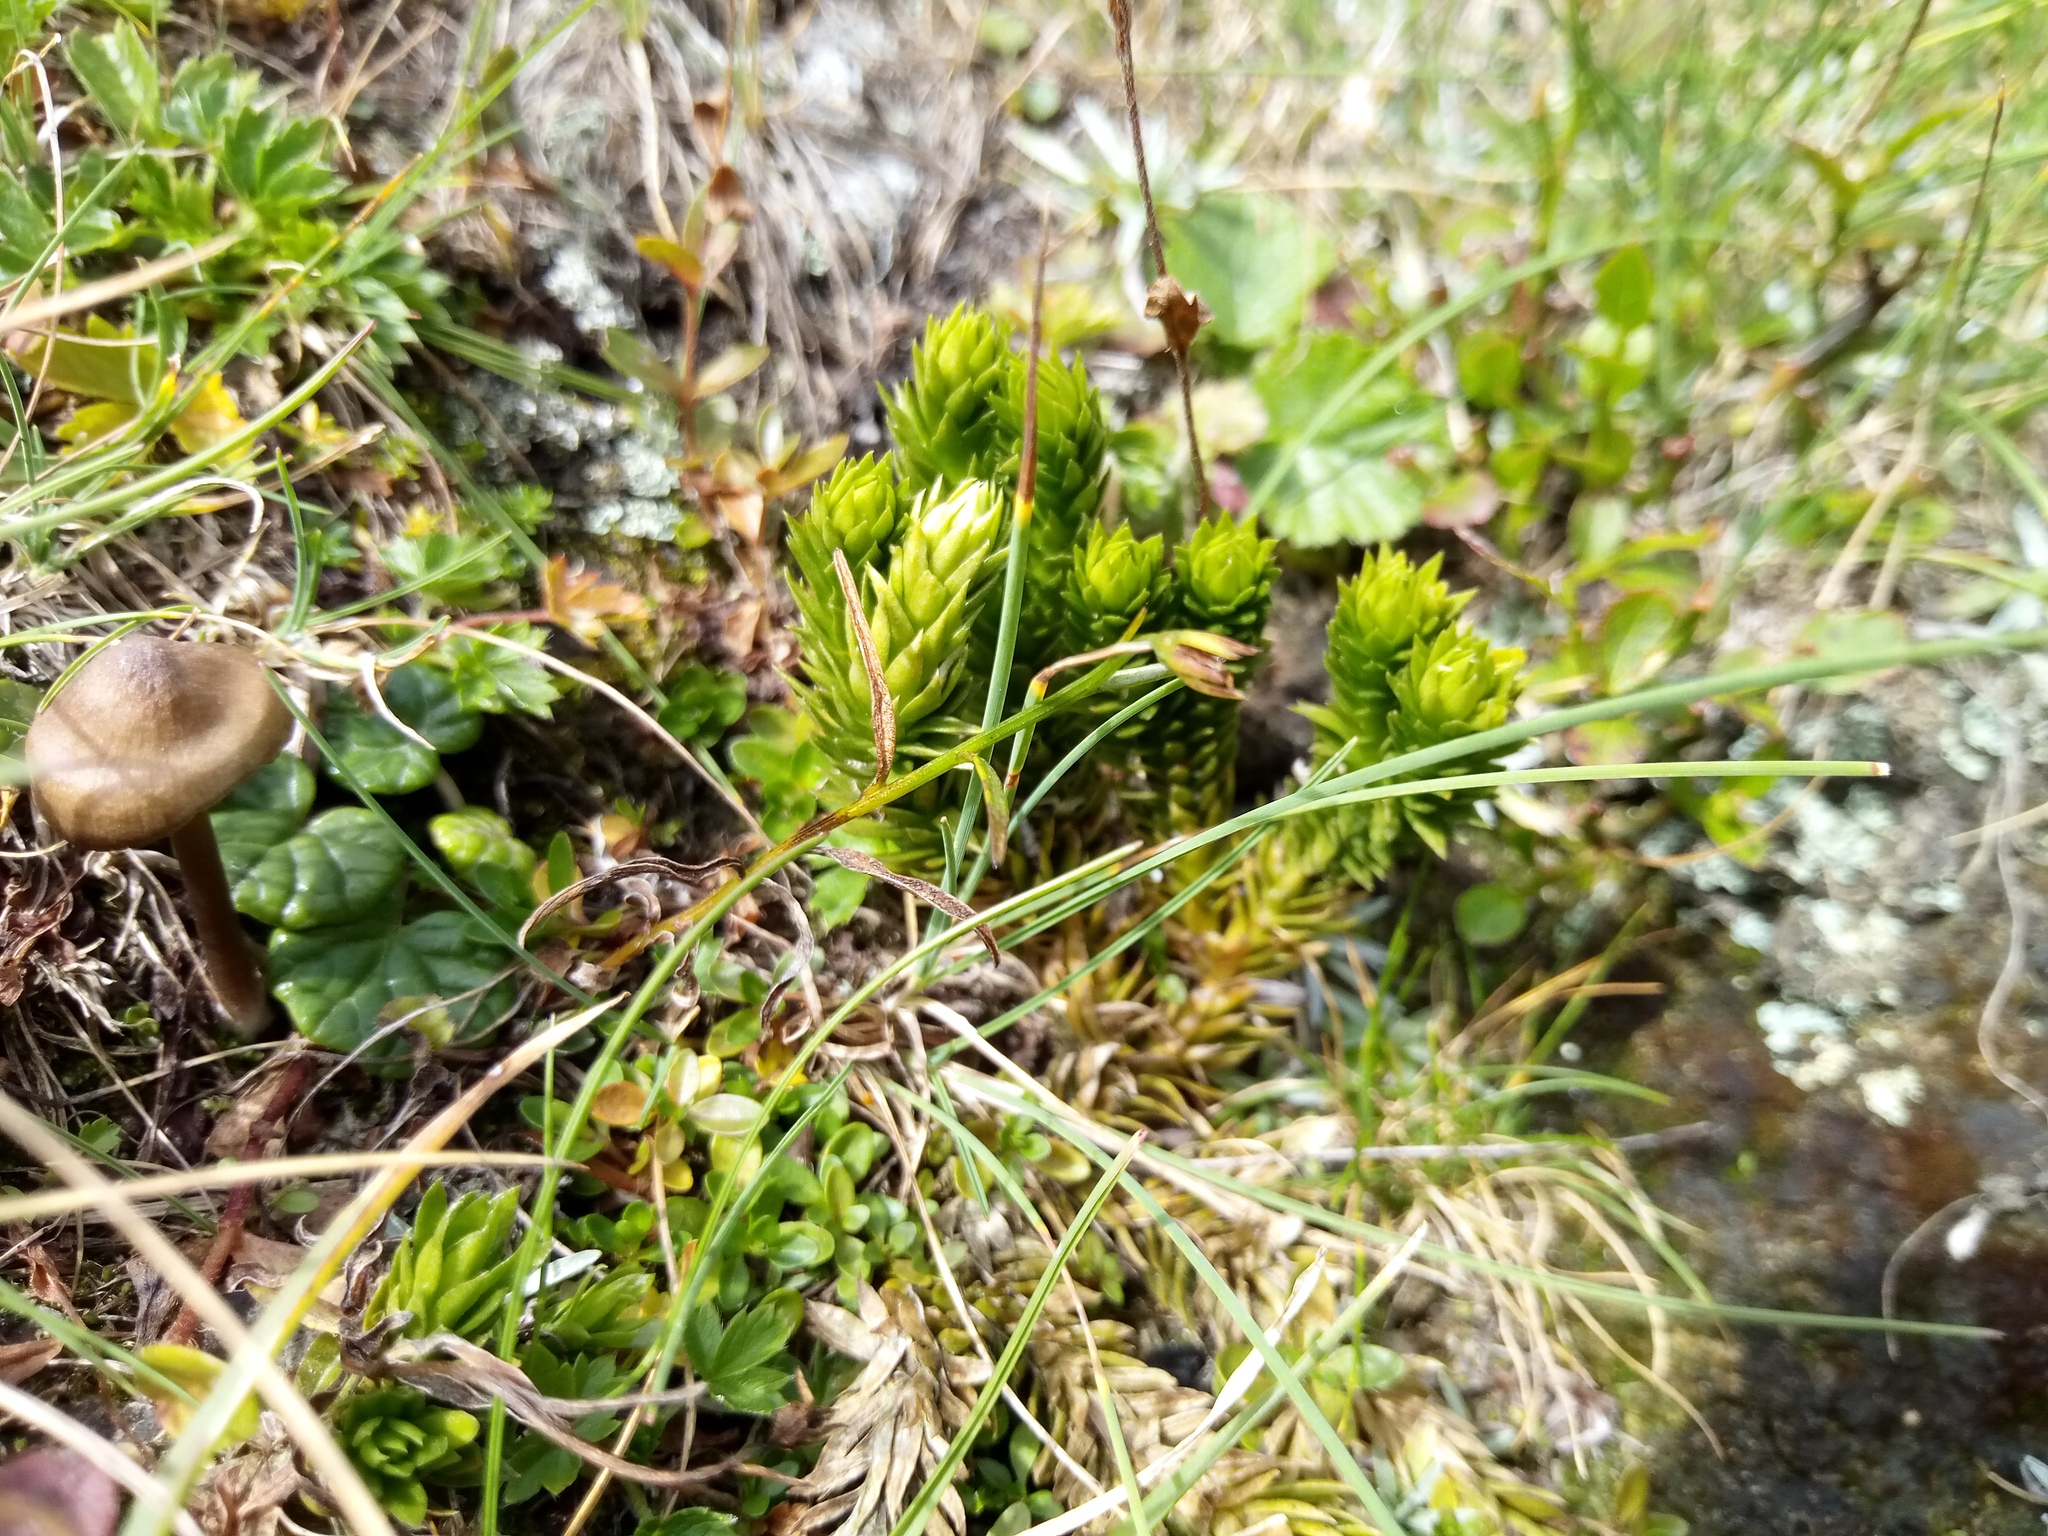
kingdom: Plantae
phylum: Tracheophyta
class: Lycopodiopsida
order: Lycopodiales
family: Lycopodiaceae
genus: Huperzia
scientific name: Huperzia selago
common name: Northern firmoss
